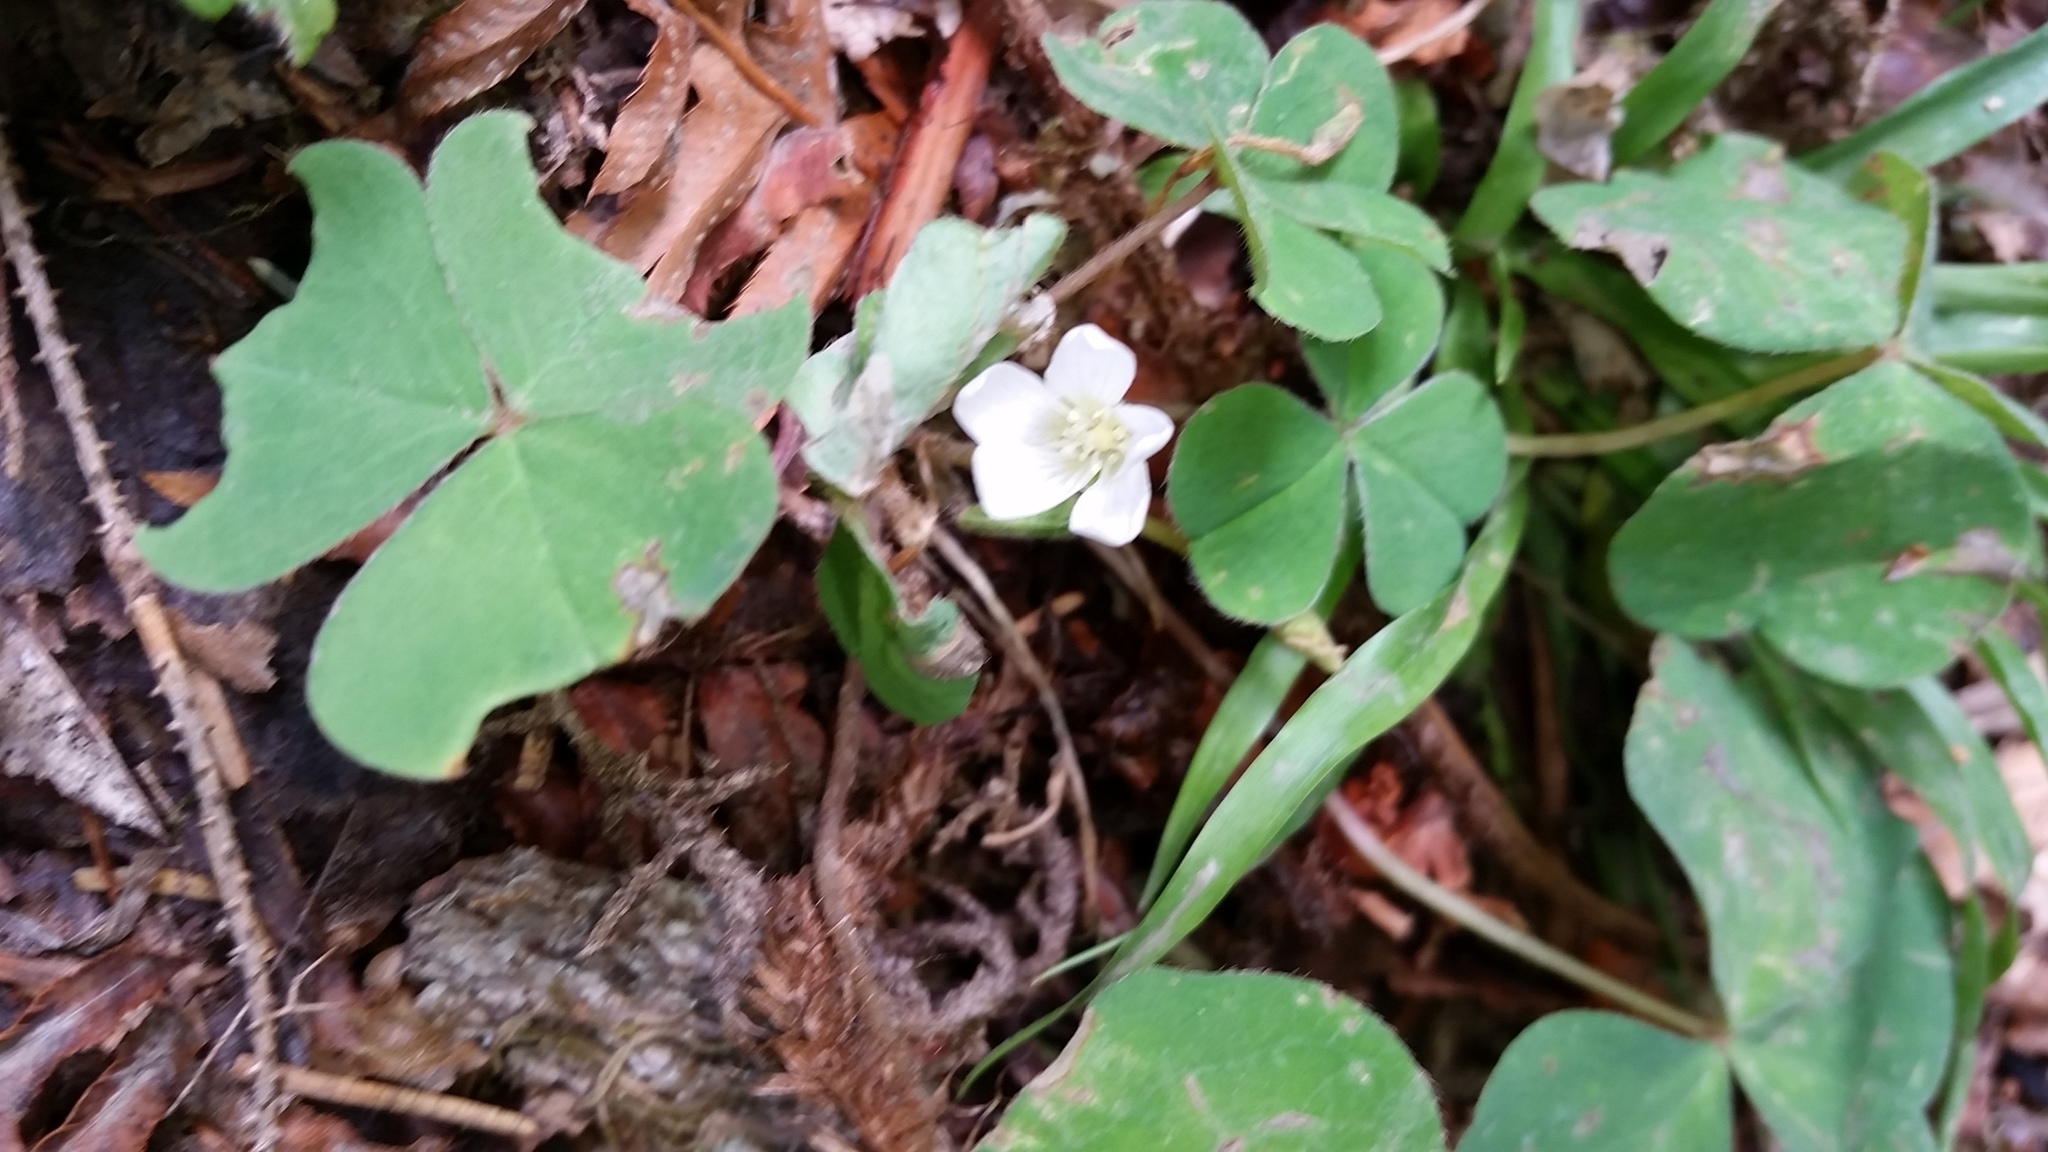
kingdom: Plantae
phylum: Tracheophyta
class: Magnoliopsida
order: Oxalidales
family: Oxalidaceae
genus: Oxalis
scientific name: Oxalis oregana
